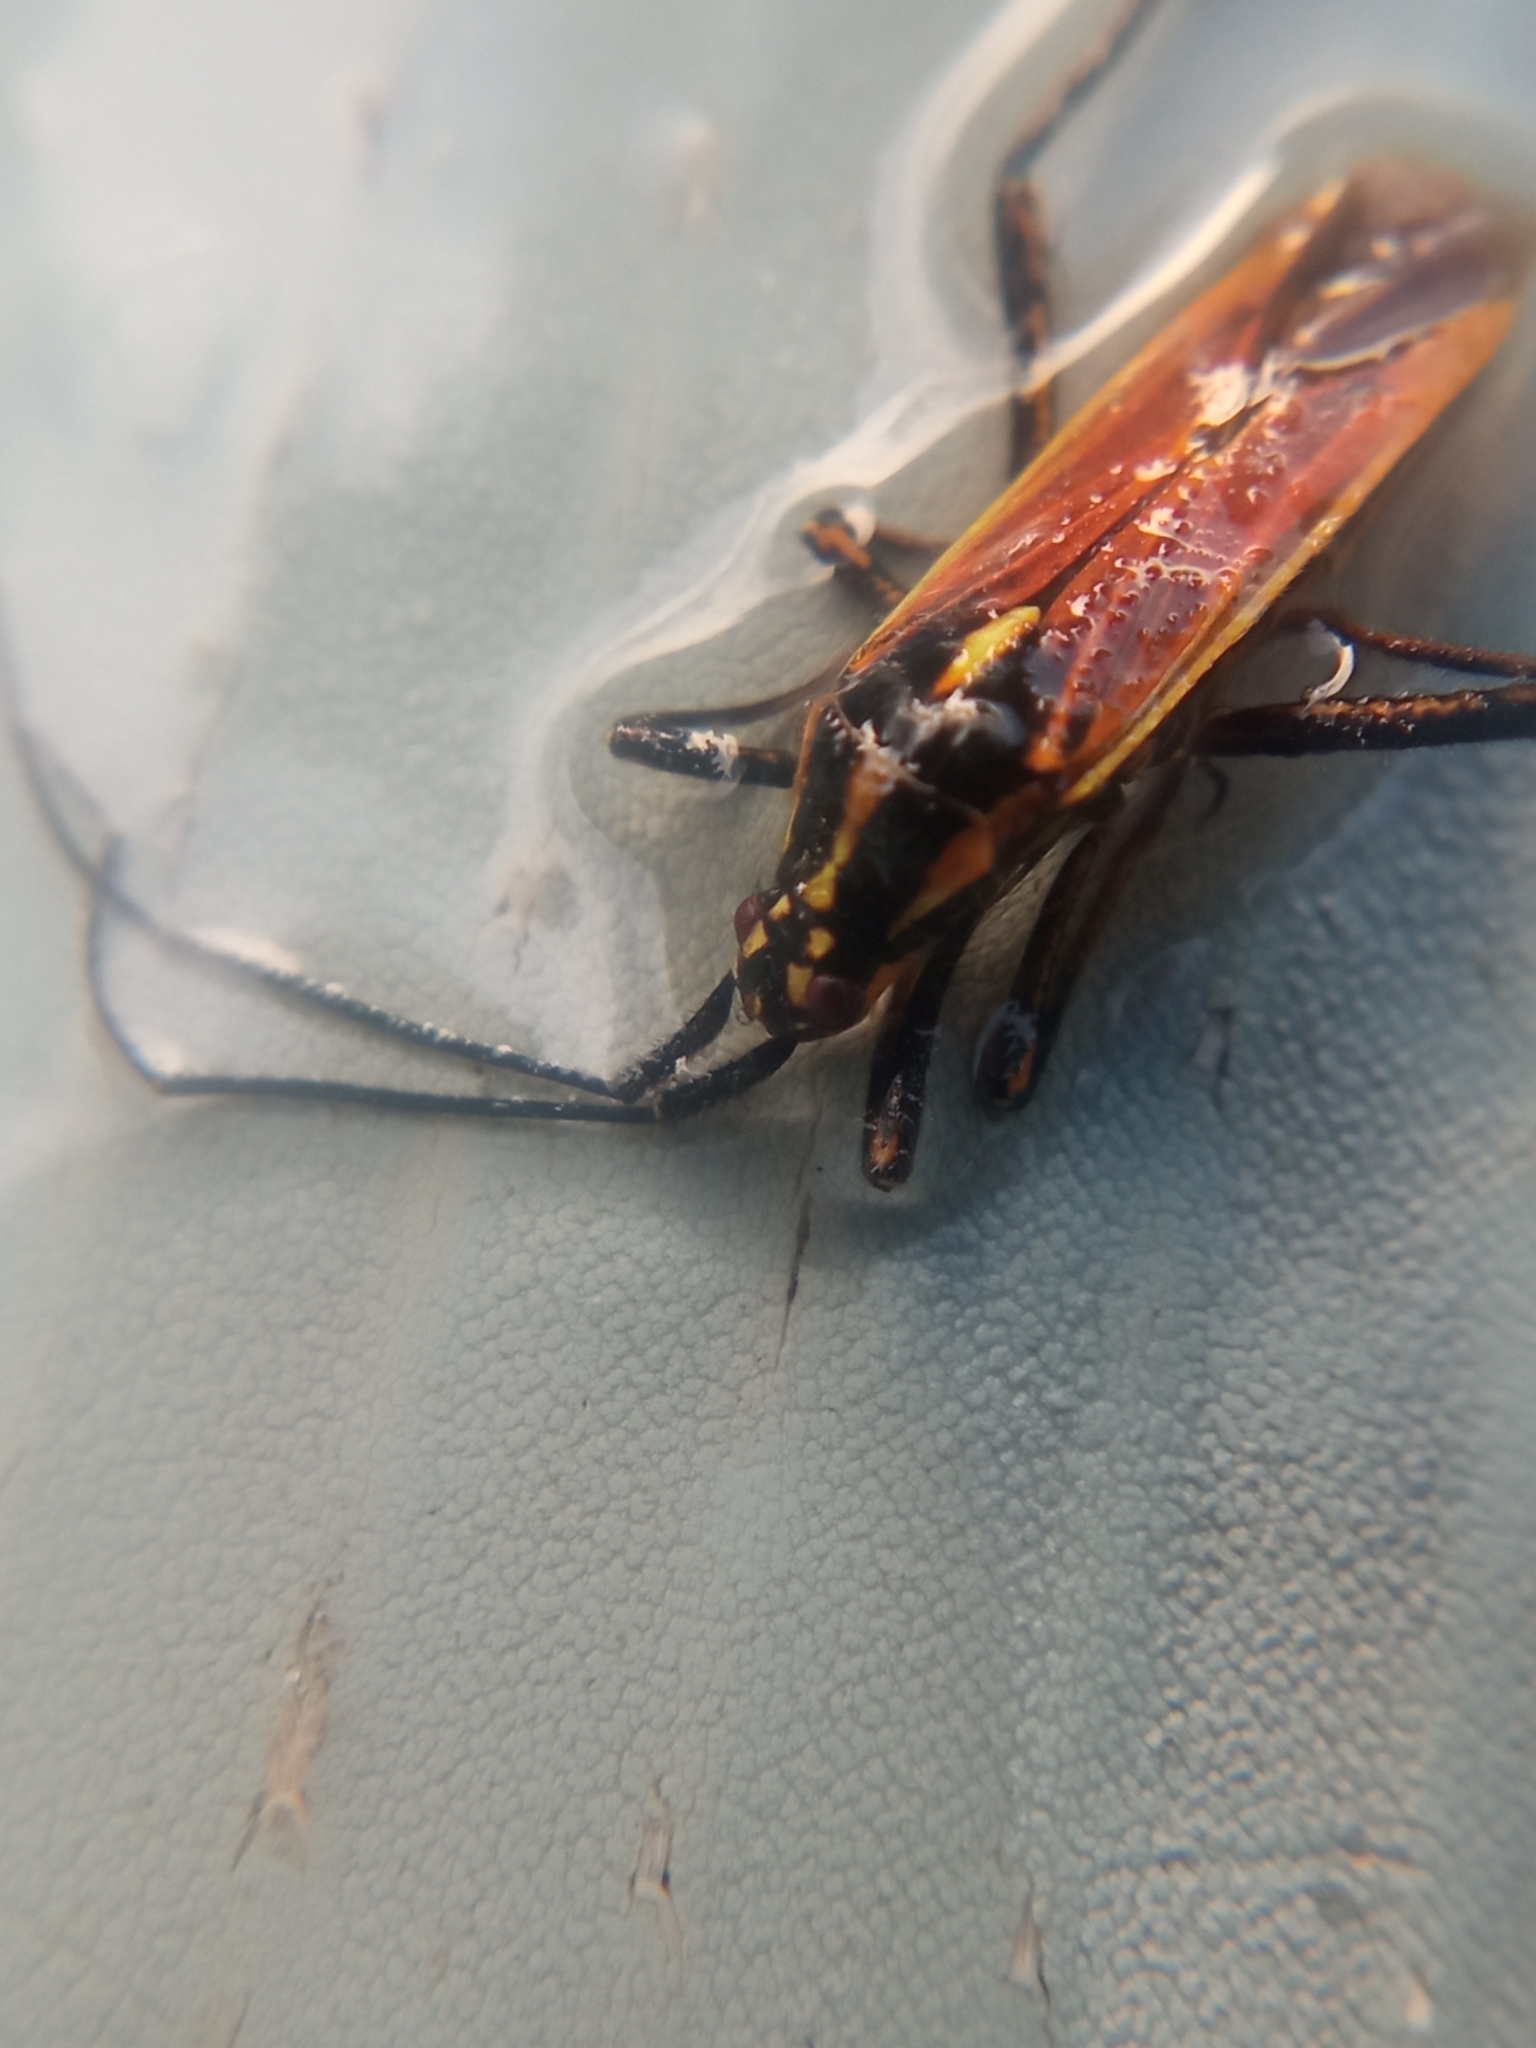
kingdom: Animalia
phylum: Arthropoda
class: Insecta
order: Hemiptera
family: Miridae
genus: Leptopterna
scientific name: Leptopterna dolabrata
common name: Meadow plant bug
